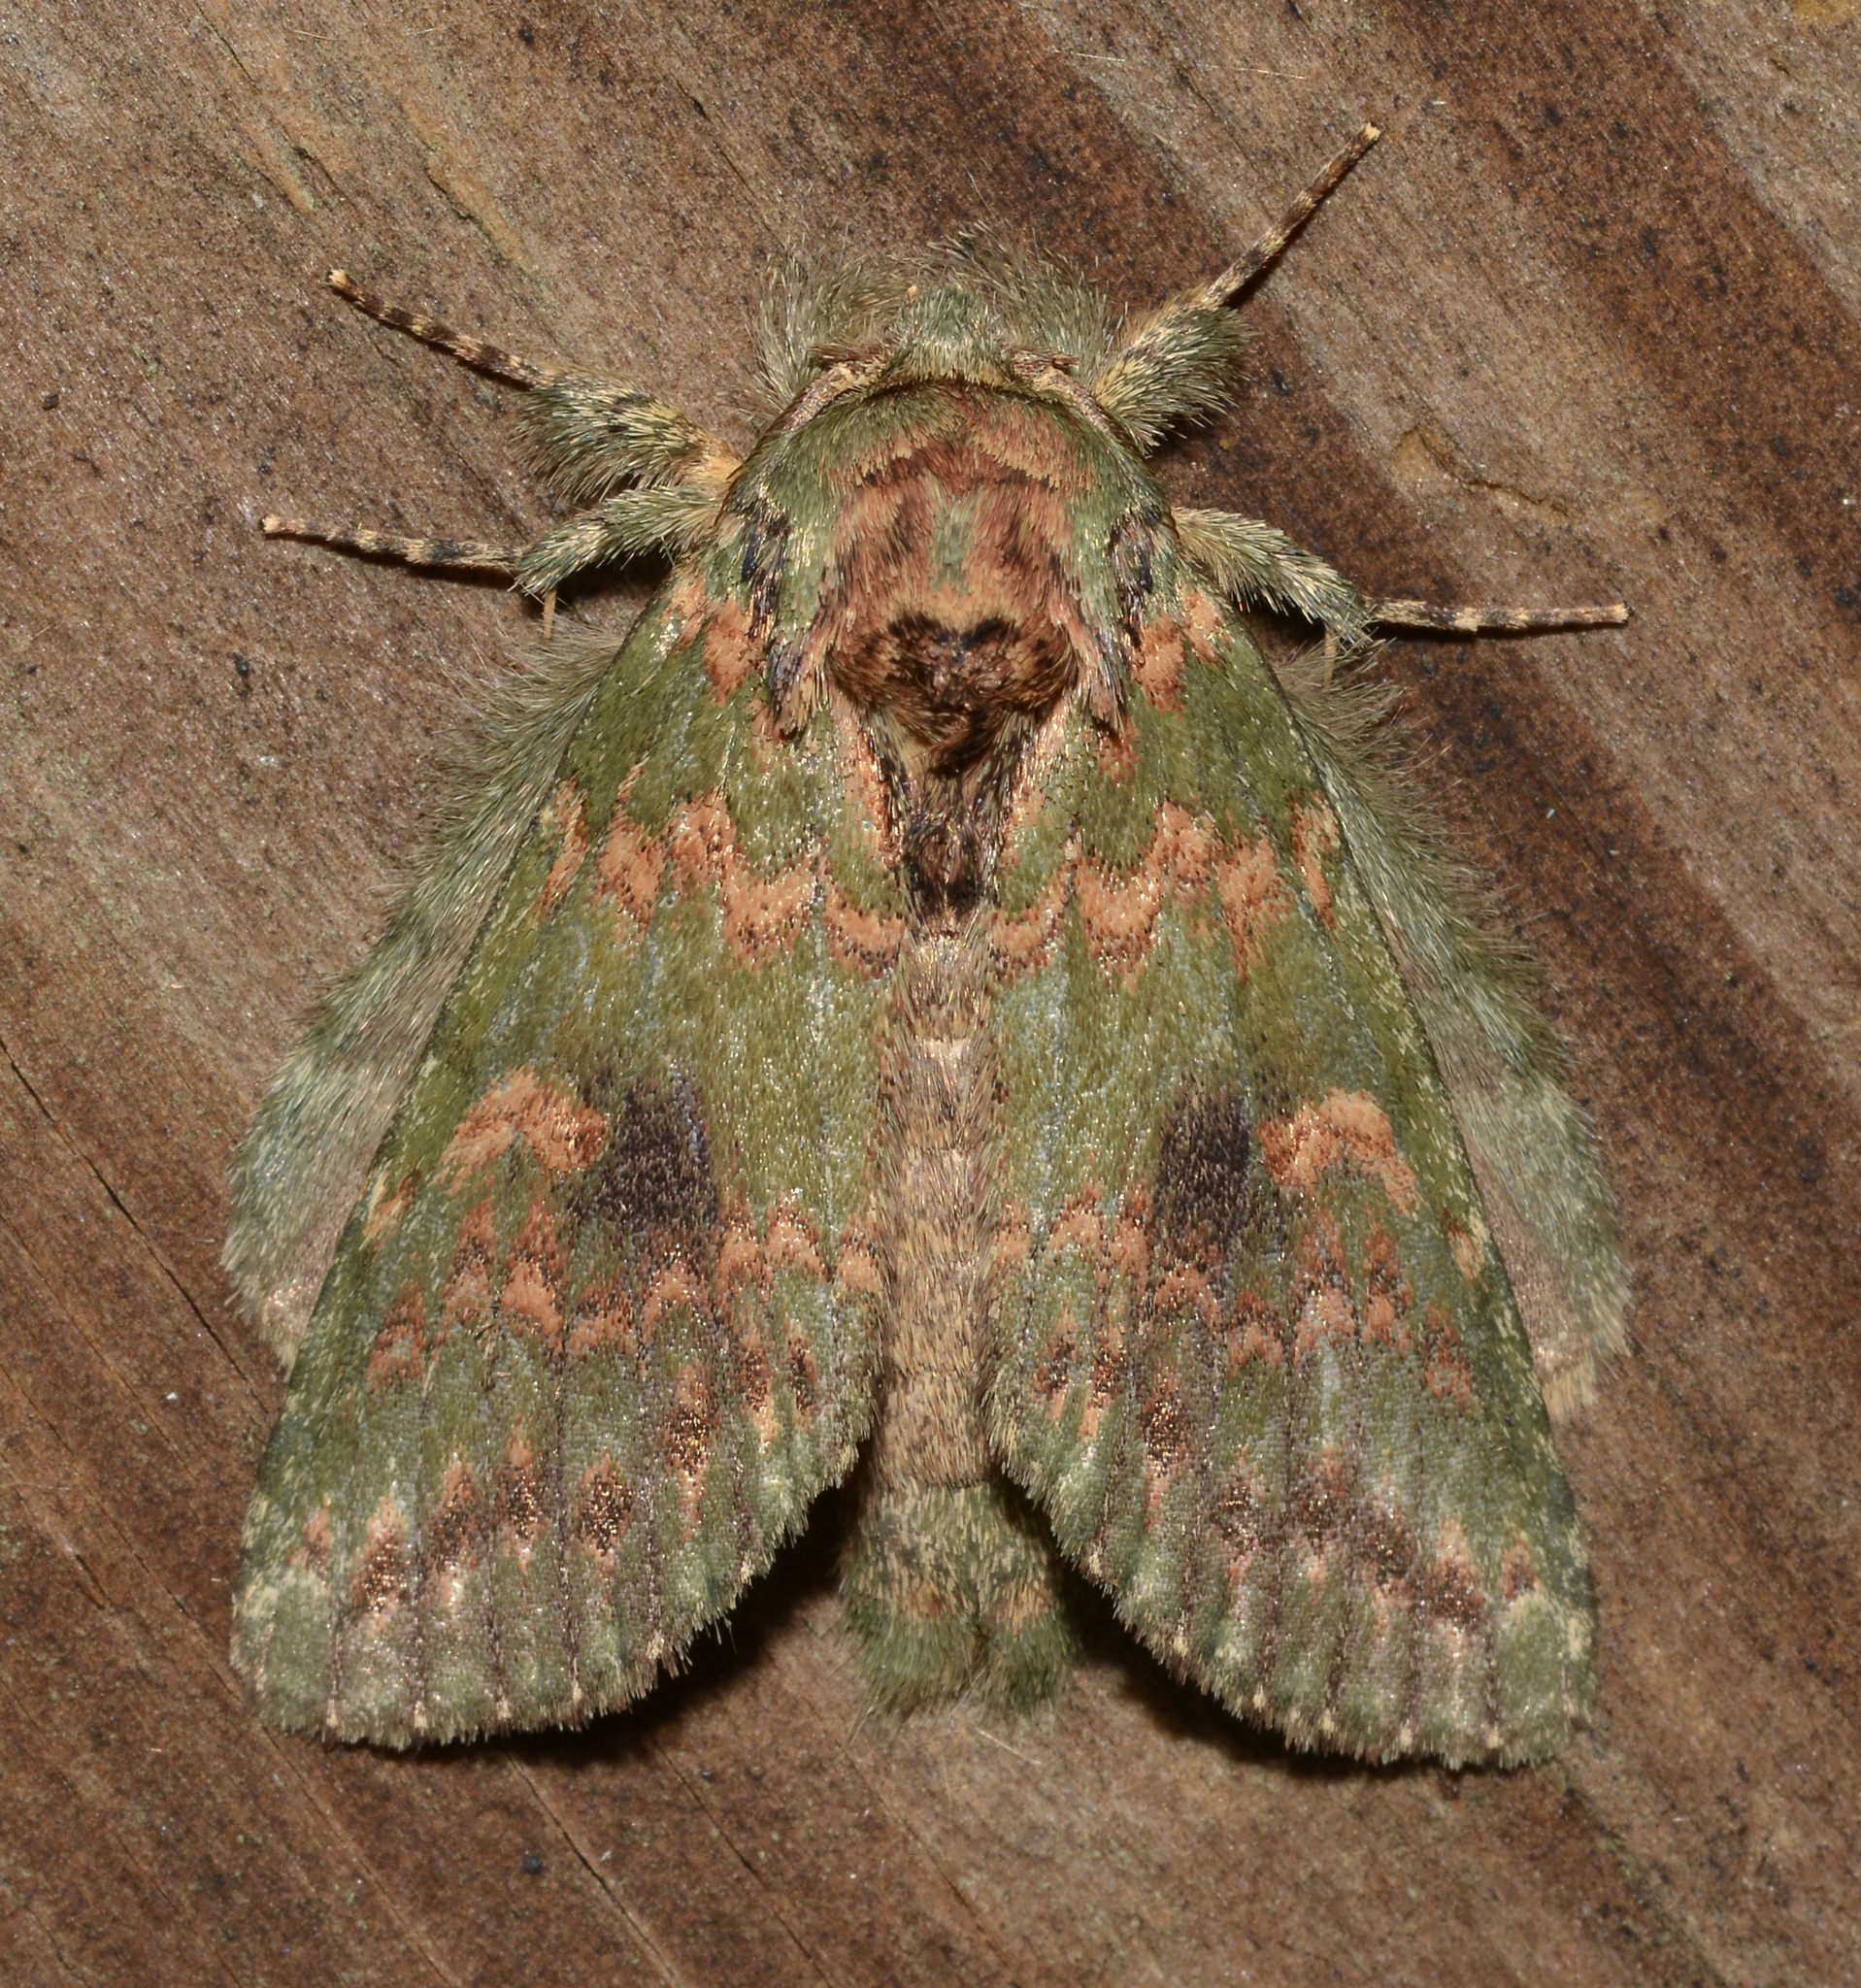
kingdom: Animalia
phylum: Arthropoda
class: Insecta
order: Lepidoptera
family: Notodontidae
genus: Disphragis
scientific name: Disphragis Cecrita biundata
